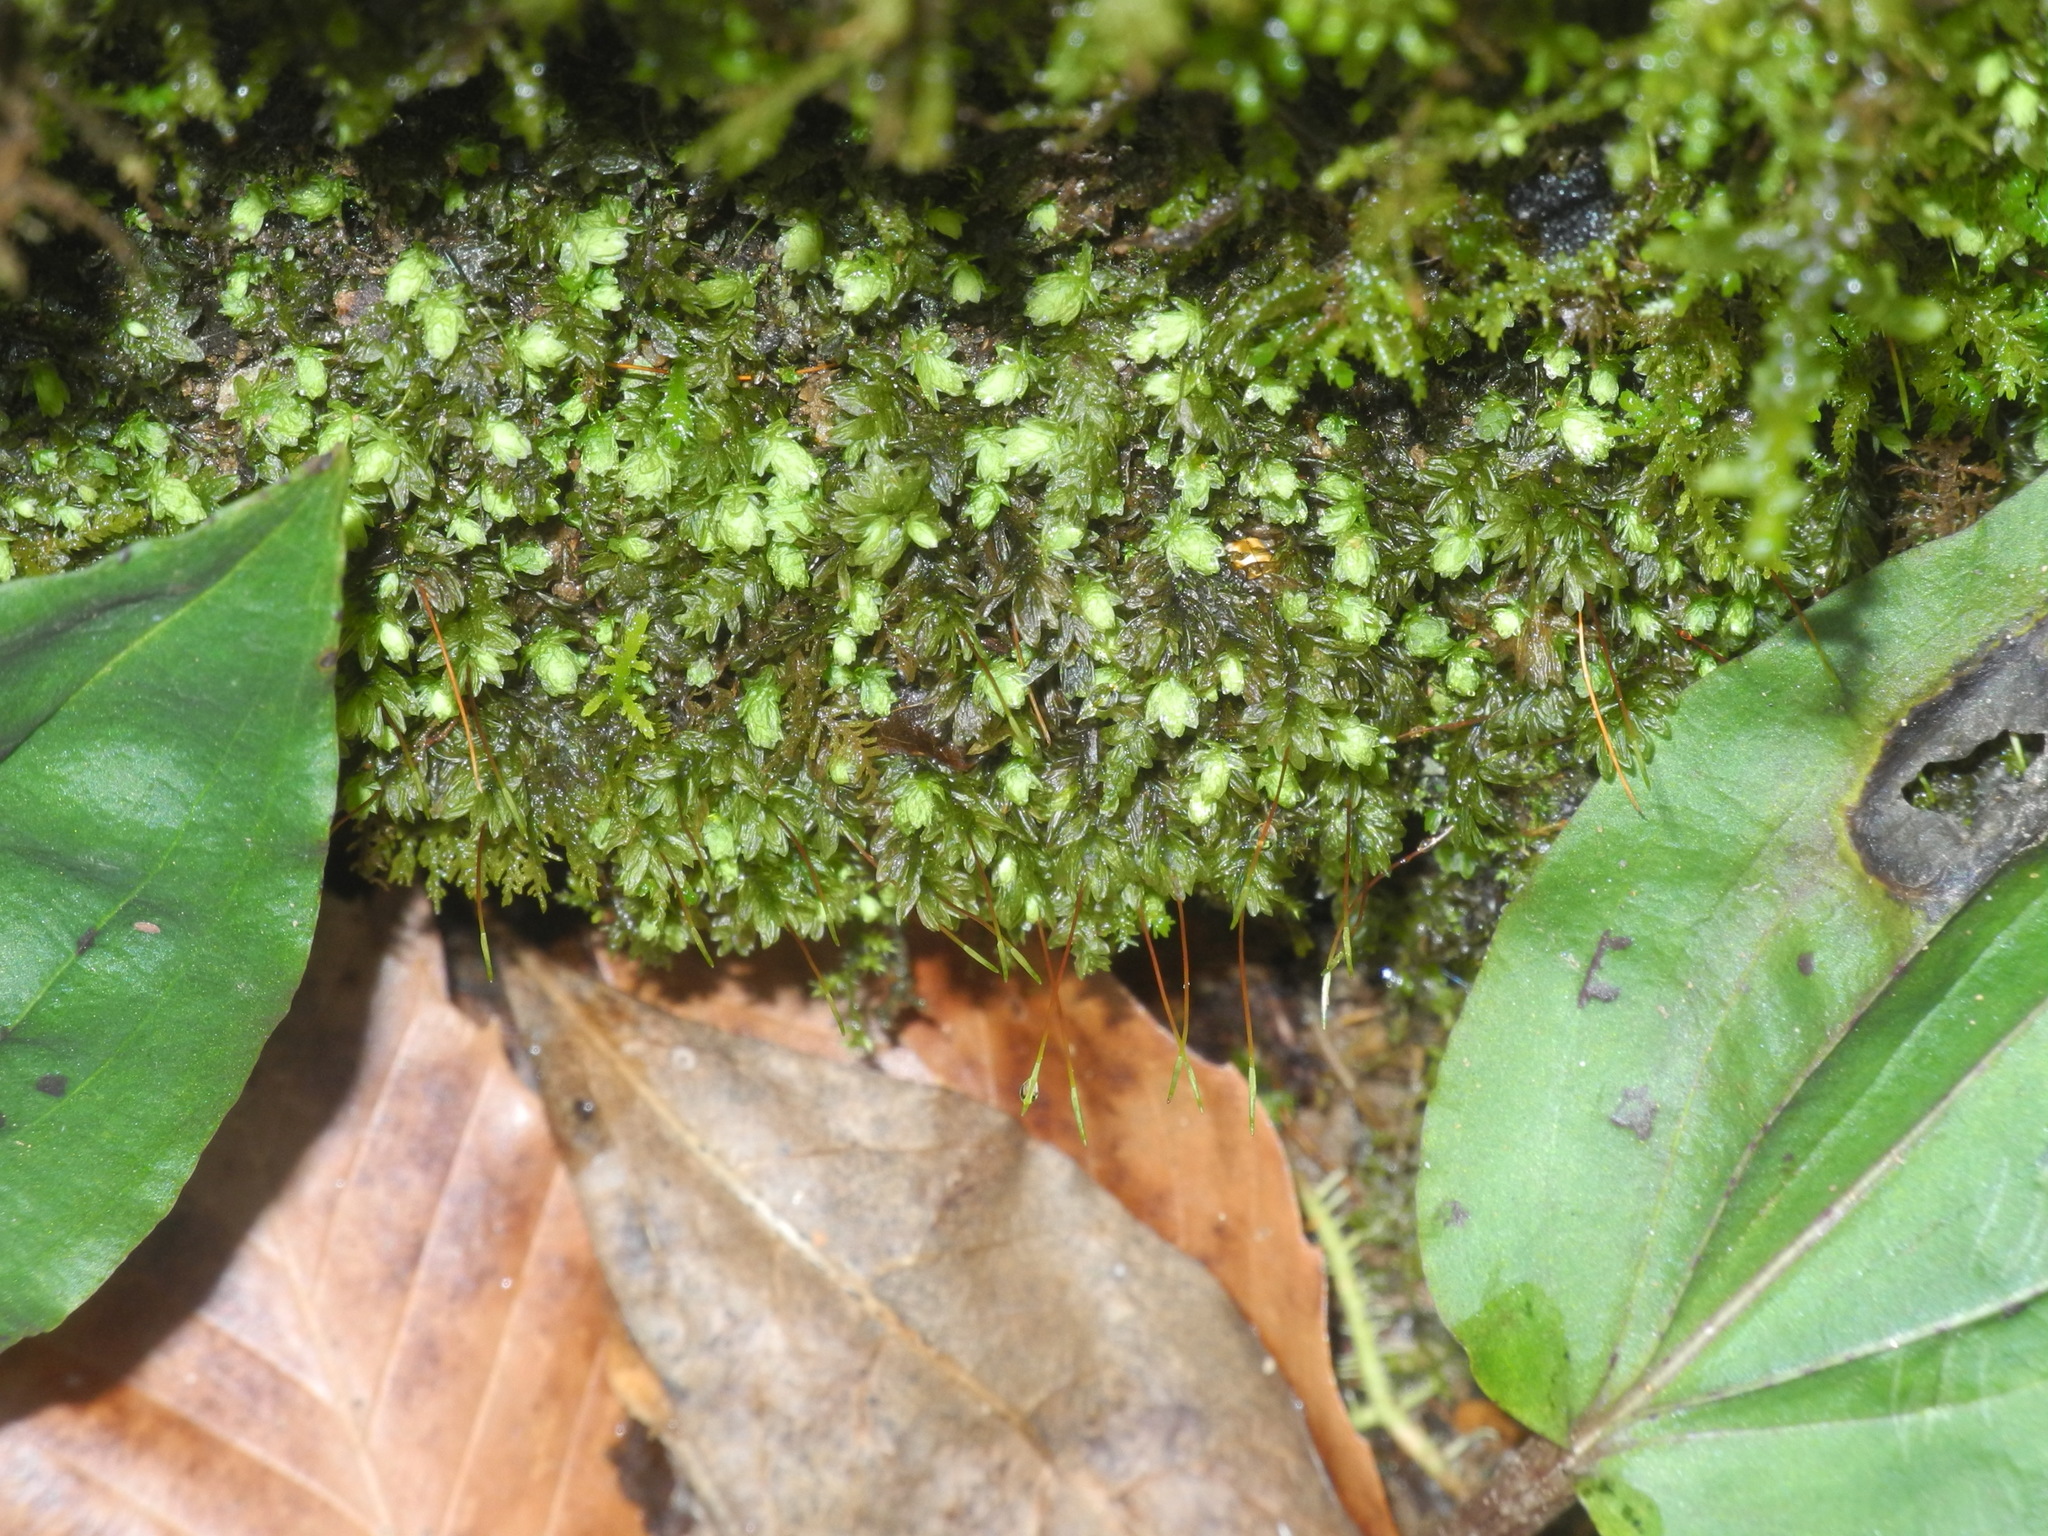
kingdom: Plantae
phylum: Bryophyta
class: Bryopsida
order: Aulacomniales
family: Aulacomniaceae
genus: Aulacomnium
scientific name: Aulacomnium heterostichum
